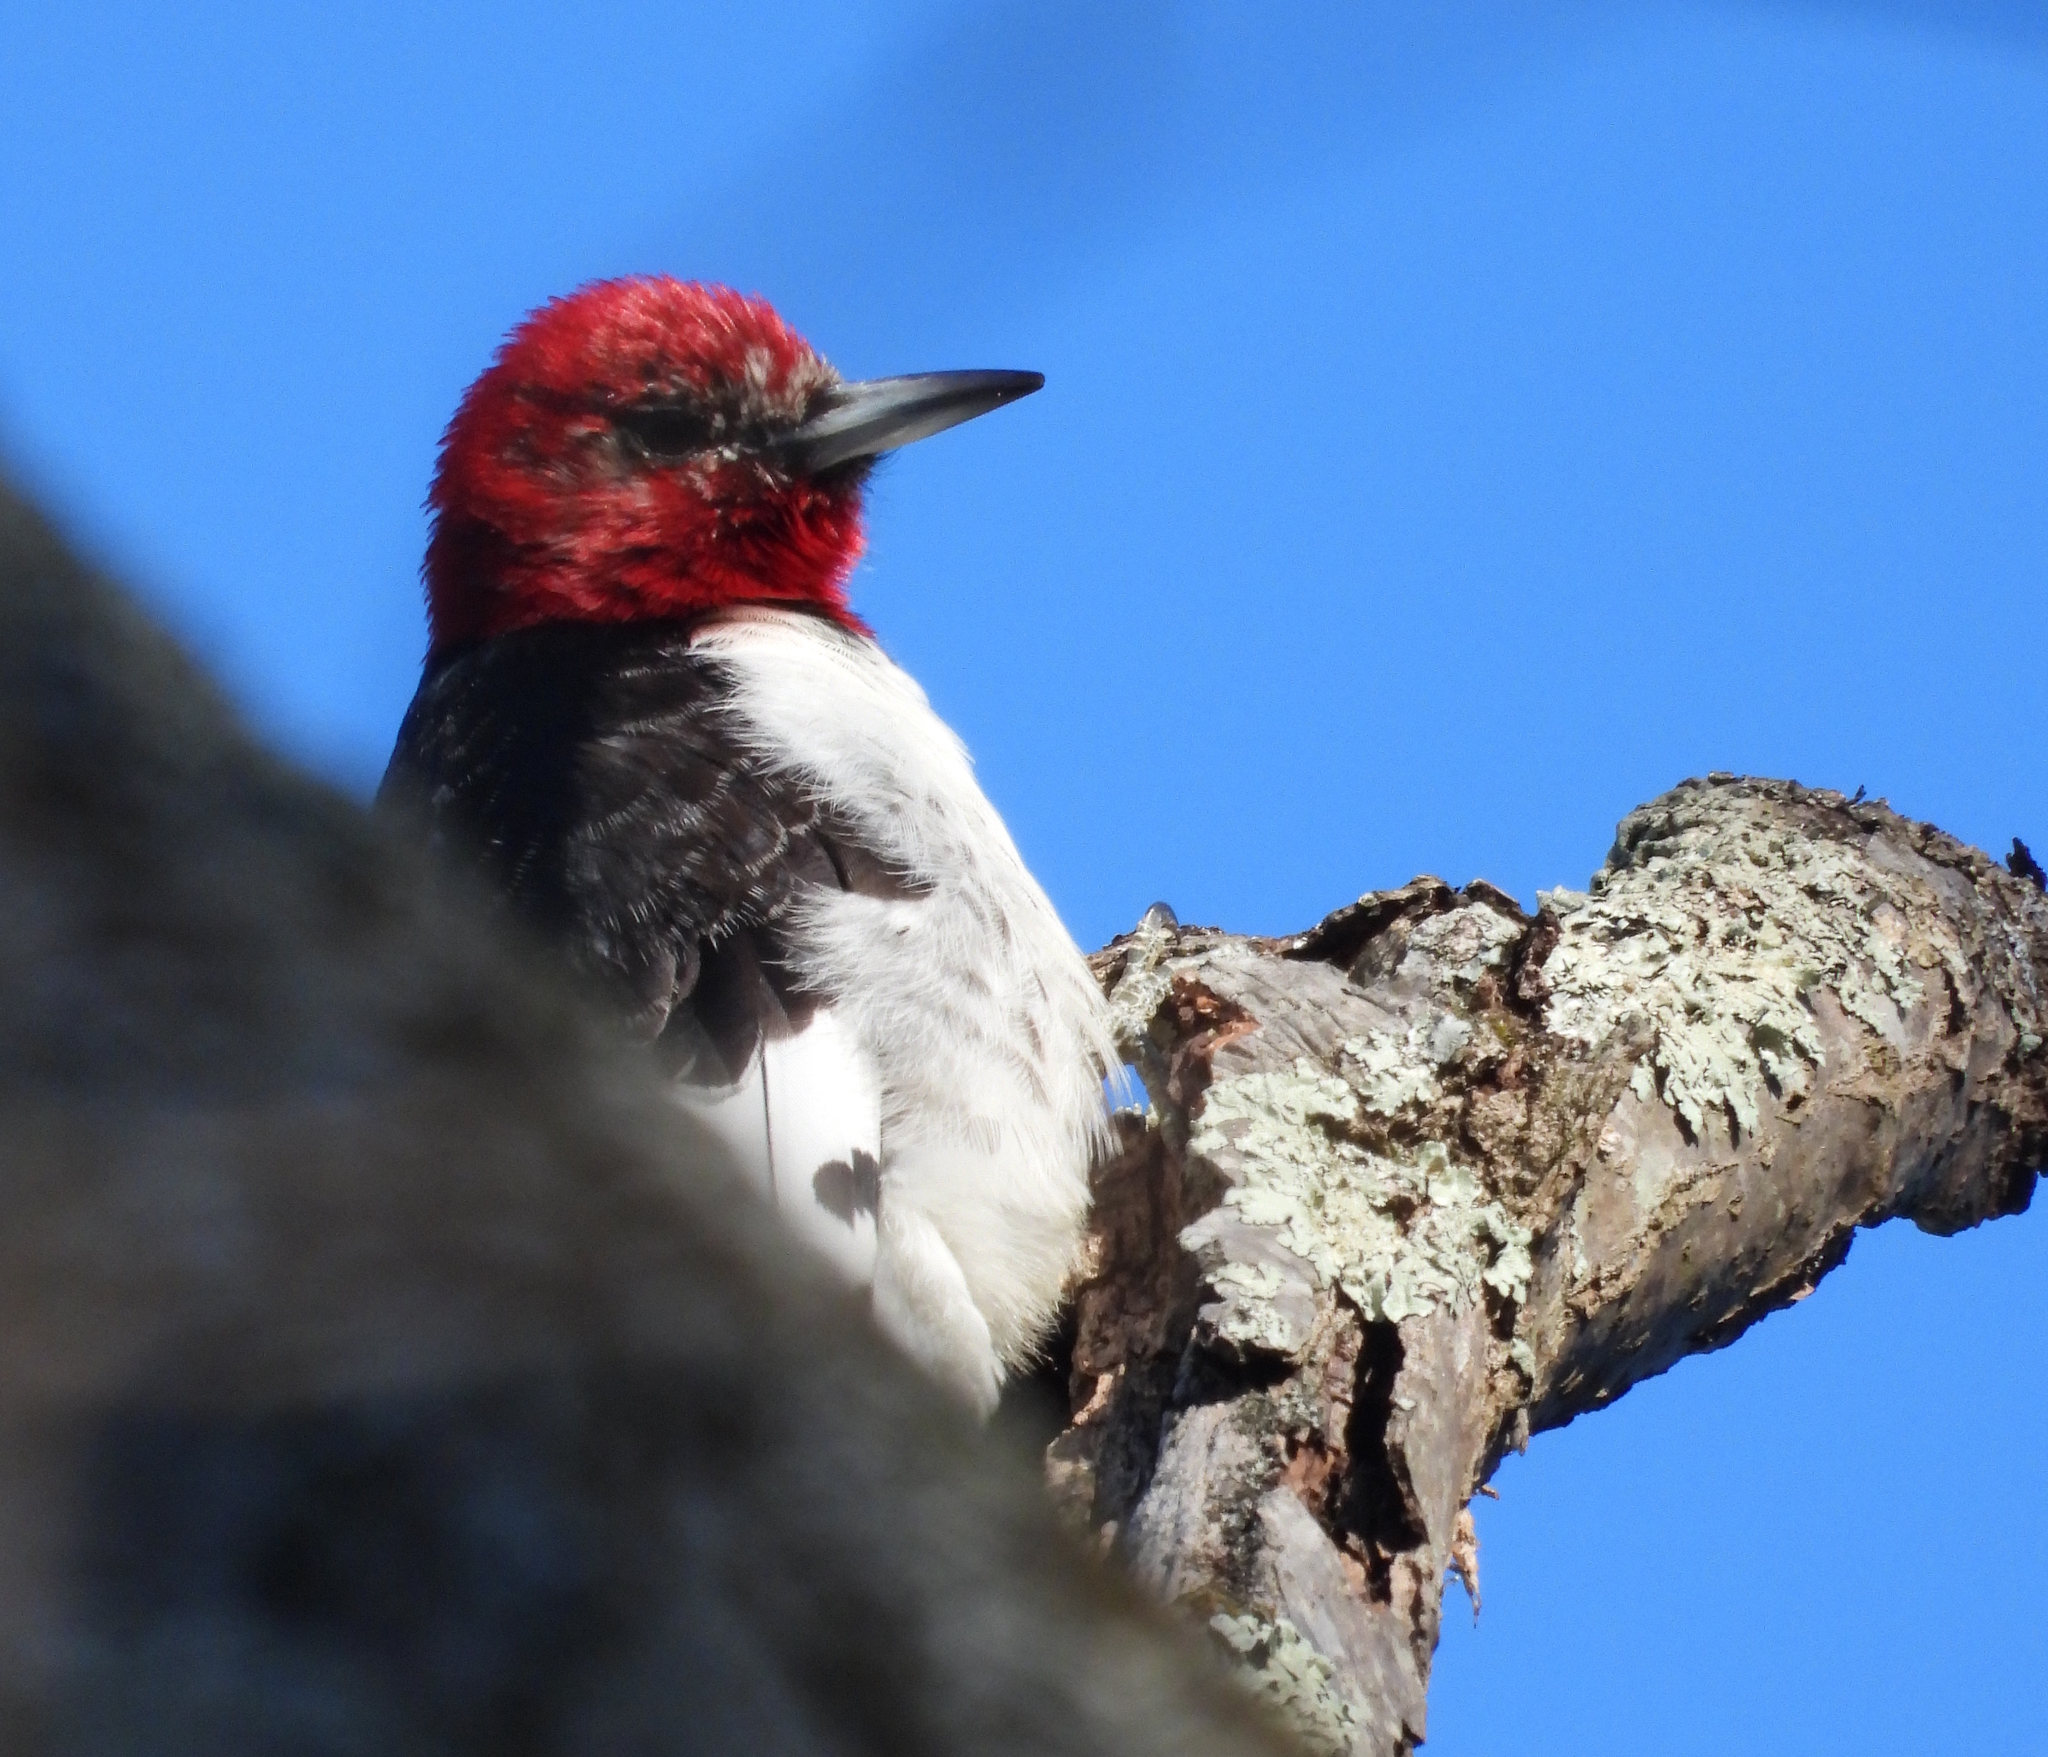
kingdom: Animalia
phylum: Chordata
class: Aves
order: Piciformes
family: Picidae
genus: Melanerpes
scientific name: Melanerpes erythrocephalus
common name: Red-headed woodpecker
